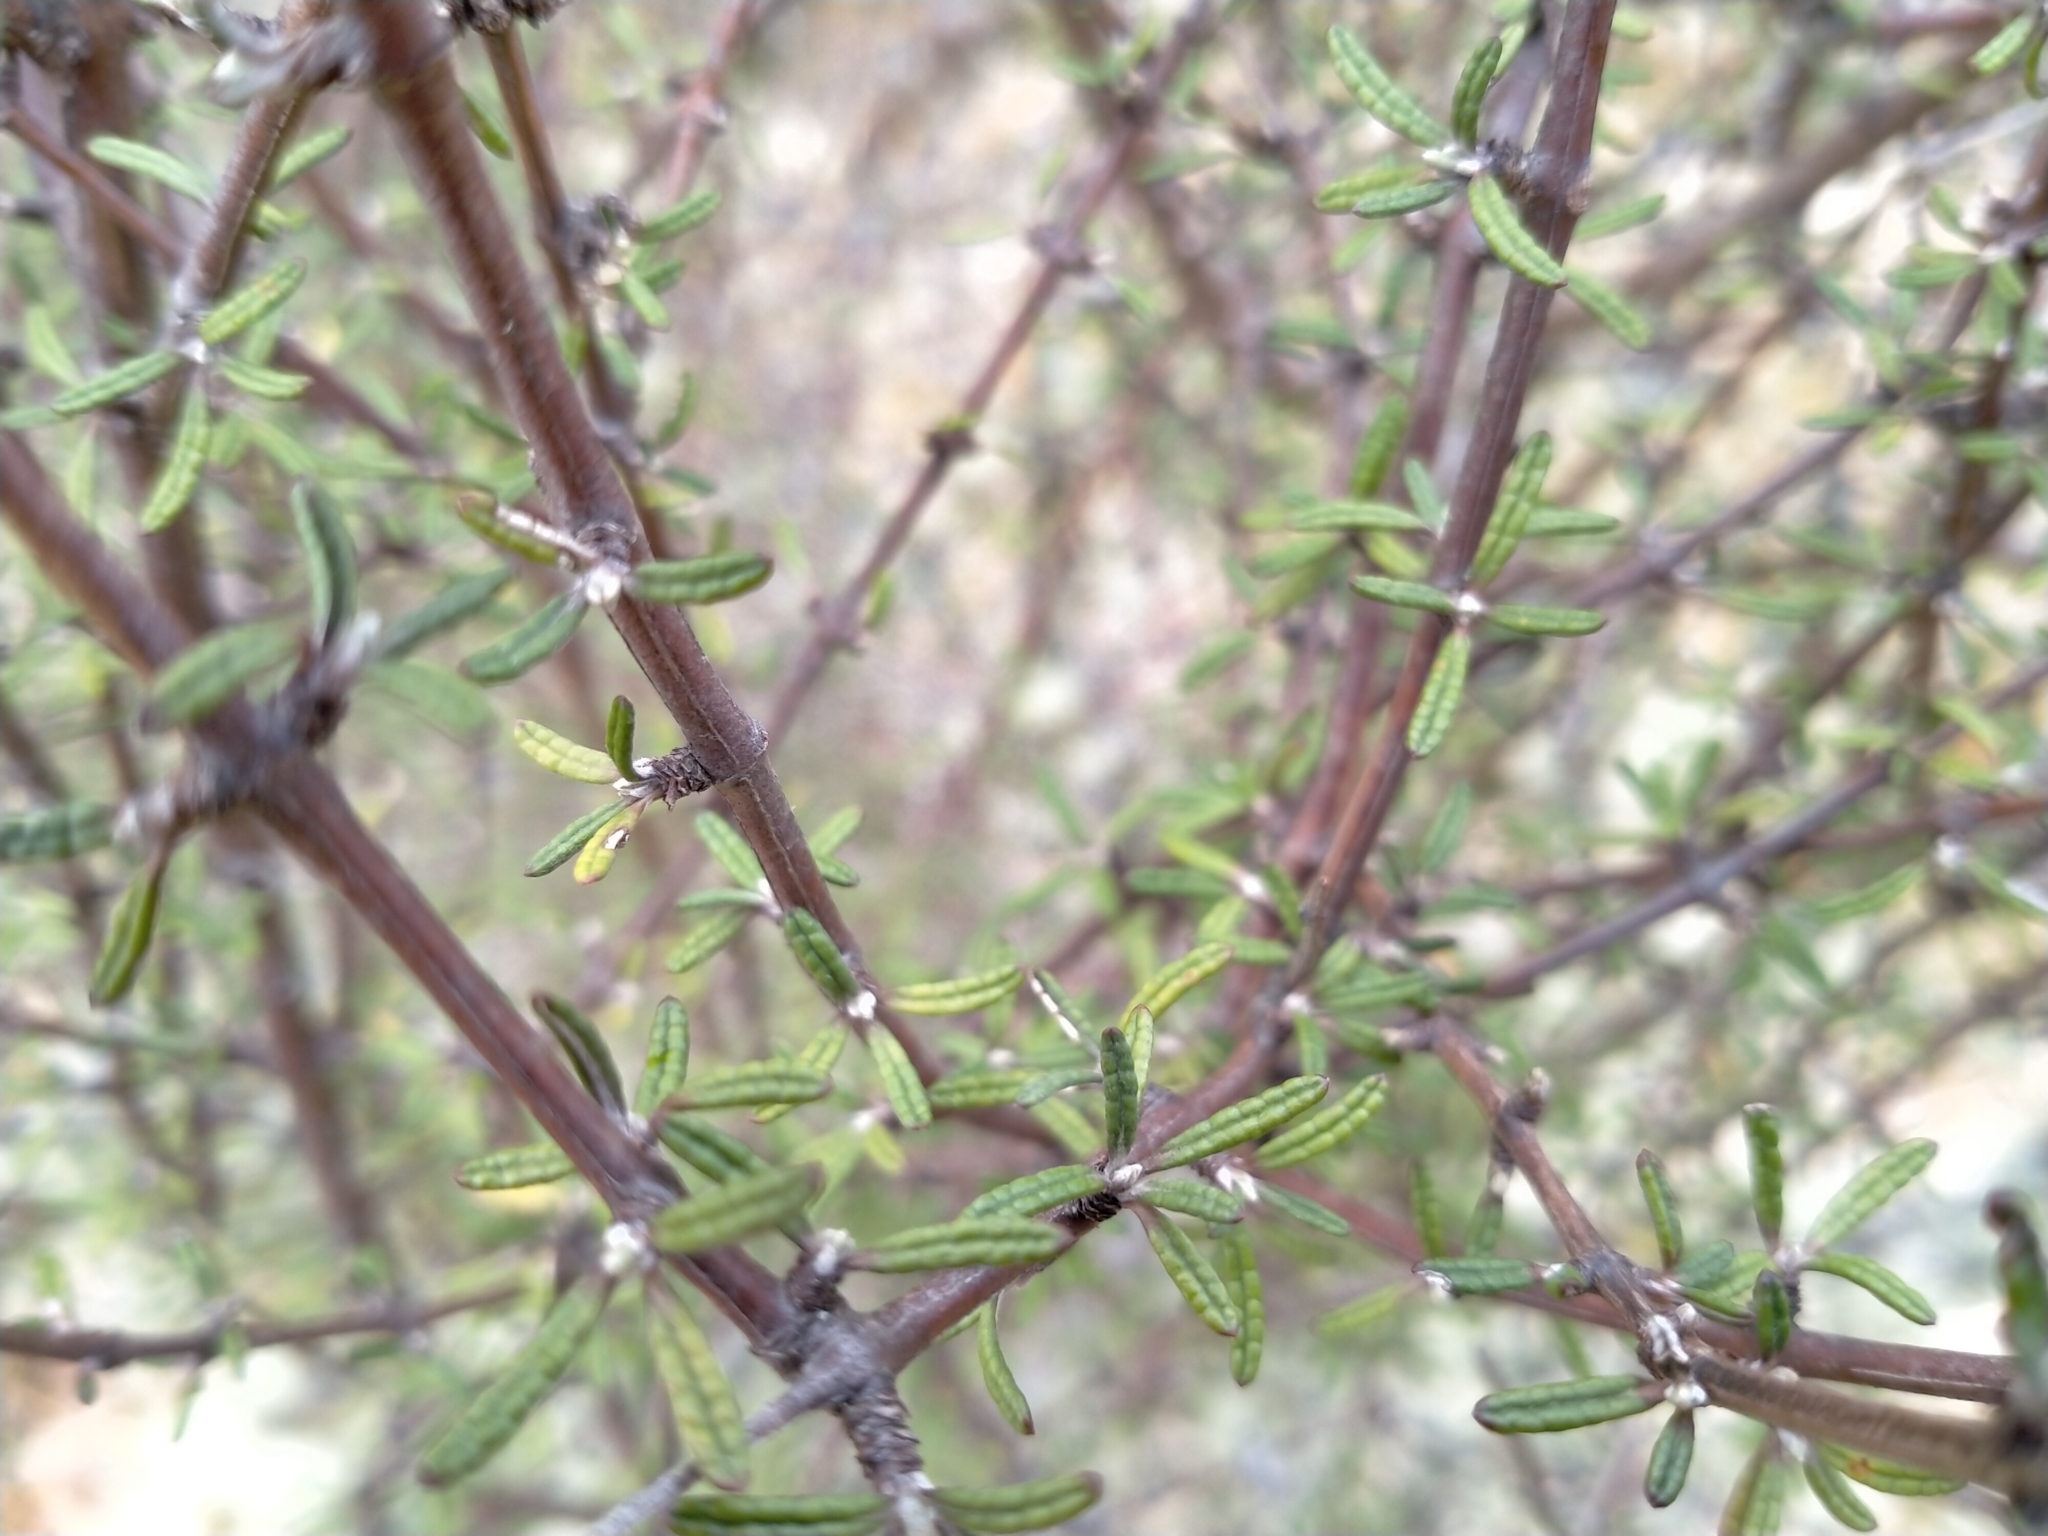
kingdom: Plantae
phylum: Tracheophyta
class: Magnoliopsida
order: Asterales
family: Asteraceae
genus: Olearia
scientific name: Olearia bullata
